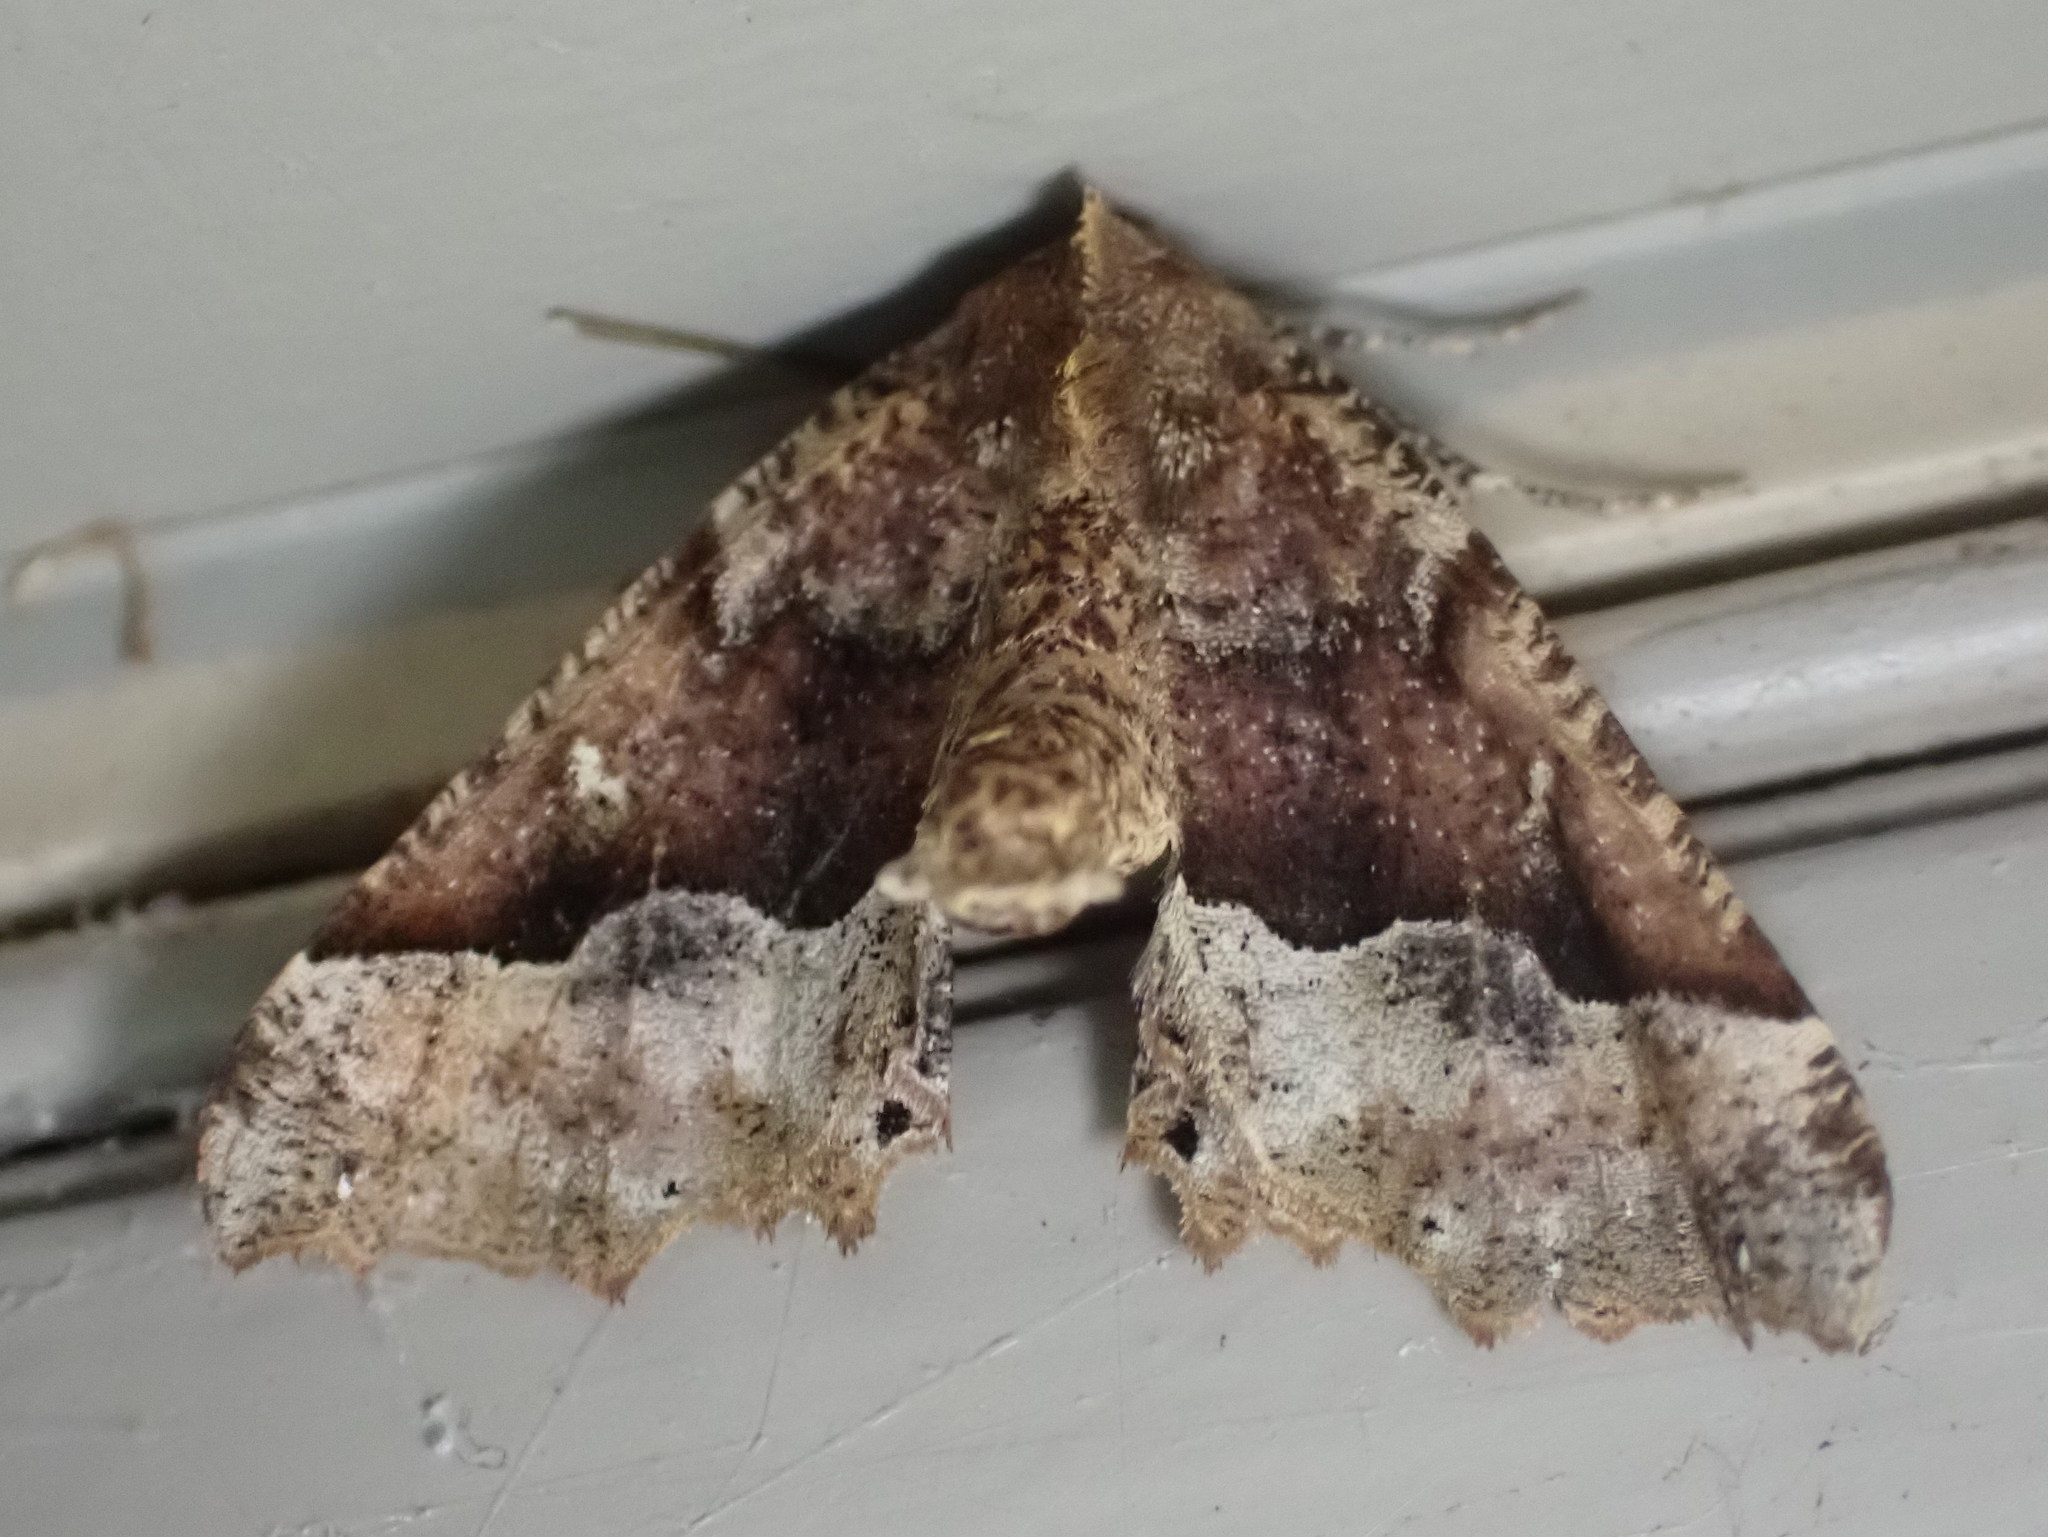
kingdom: Animalia
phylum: Arthropoda
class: Insecta
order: Lepidoptera
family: Geometridae
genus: Pero
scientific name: Pero morrisonaria
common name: Morrison's pero
